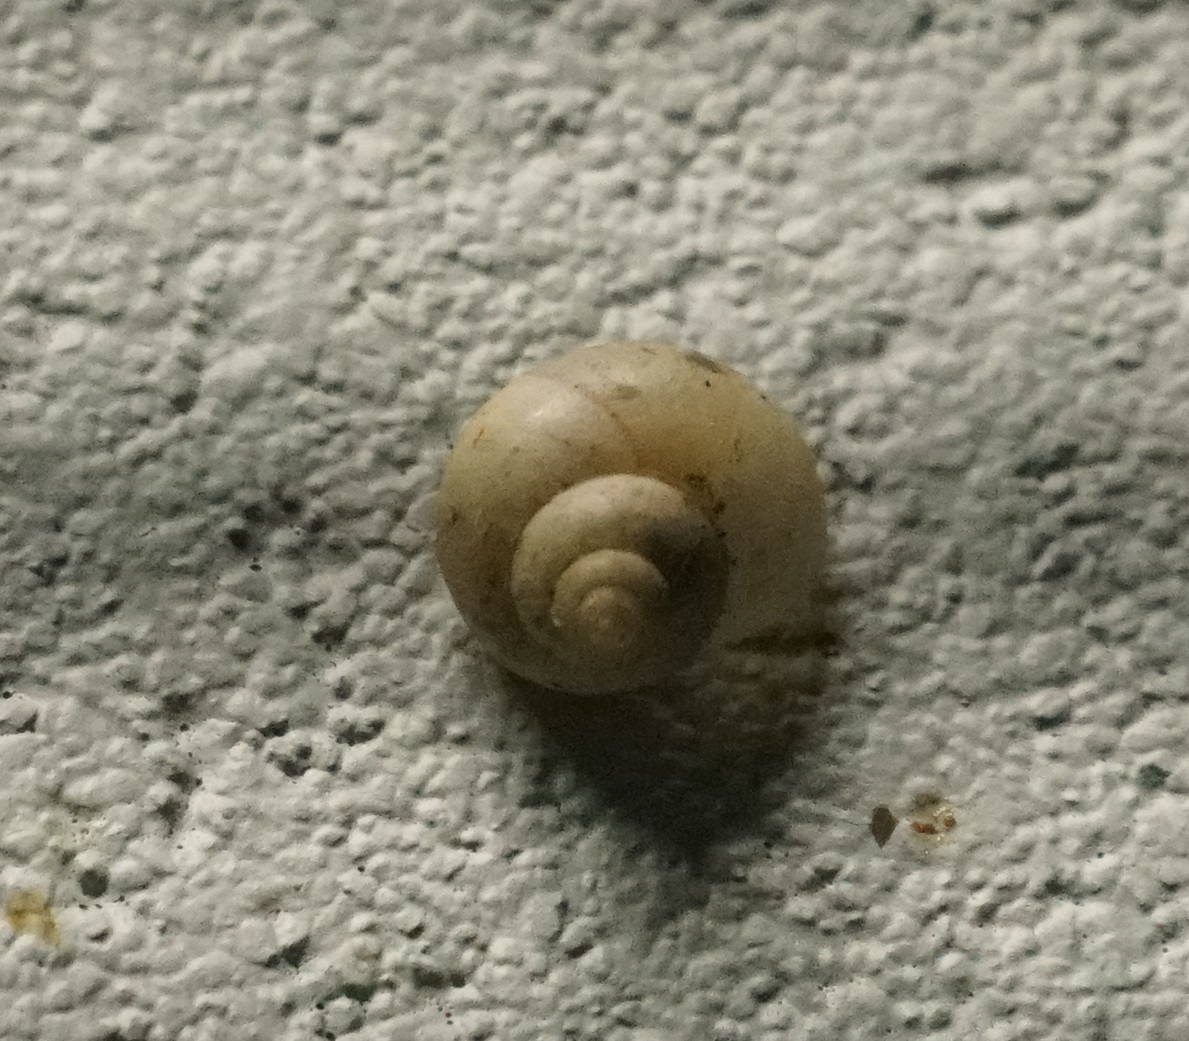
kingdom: Animalia
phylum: Mollusca
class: Gastropoda
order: Architaenioglossa
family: Cyclophoridae
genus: Leptopoma
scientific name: Leptopoma perlucidum
